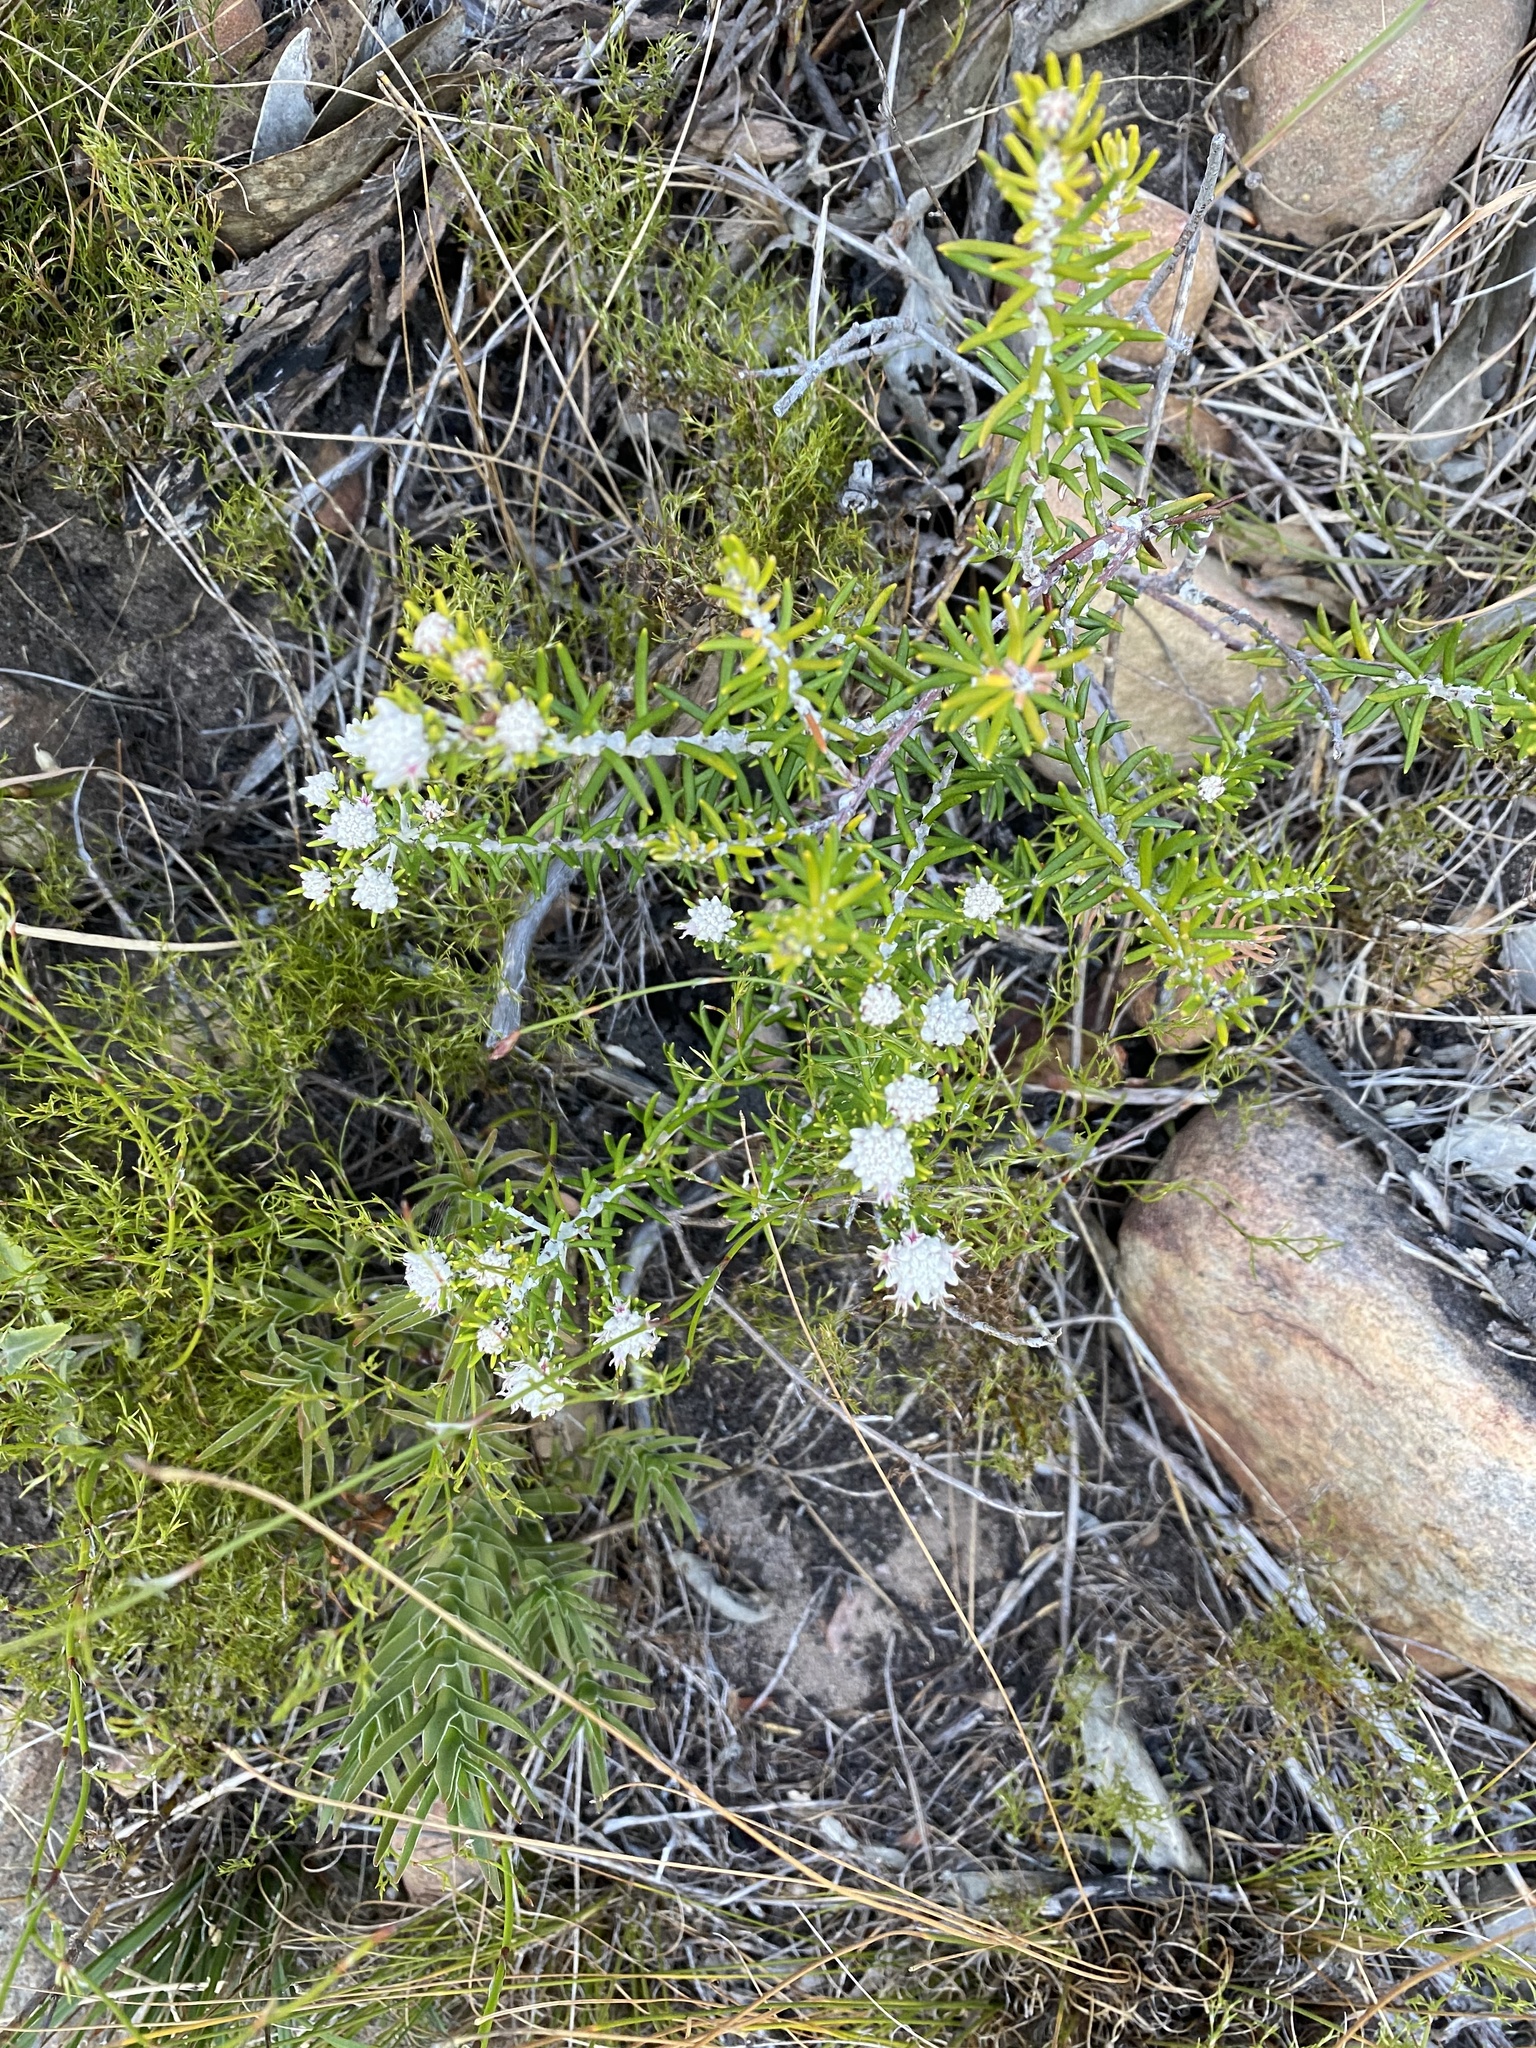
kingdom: Plantae
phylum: Tracheophyta
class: Magnoliopsida
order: Rosales
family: Rhamnaceae
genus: Trichocephalus
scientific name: Trichocephalus stipularis
